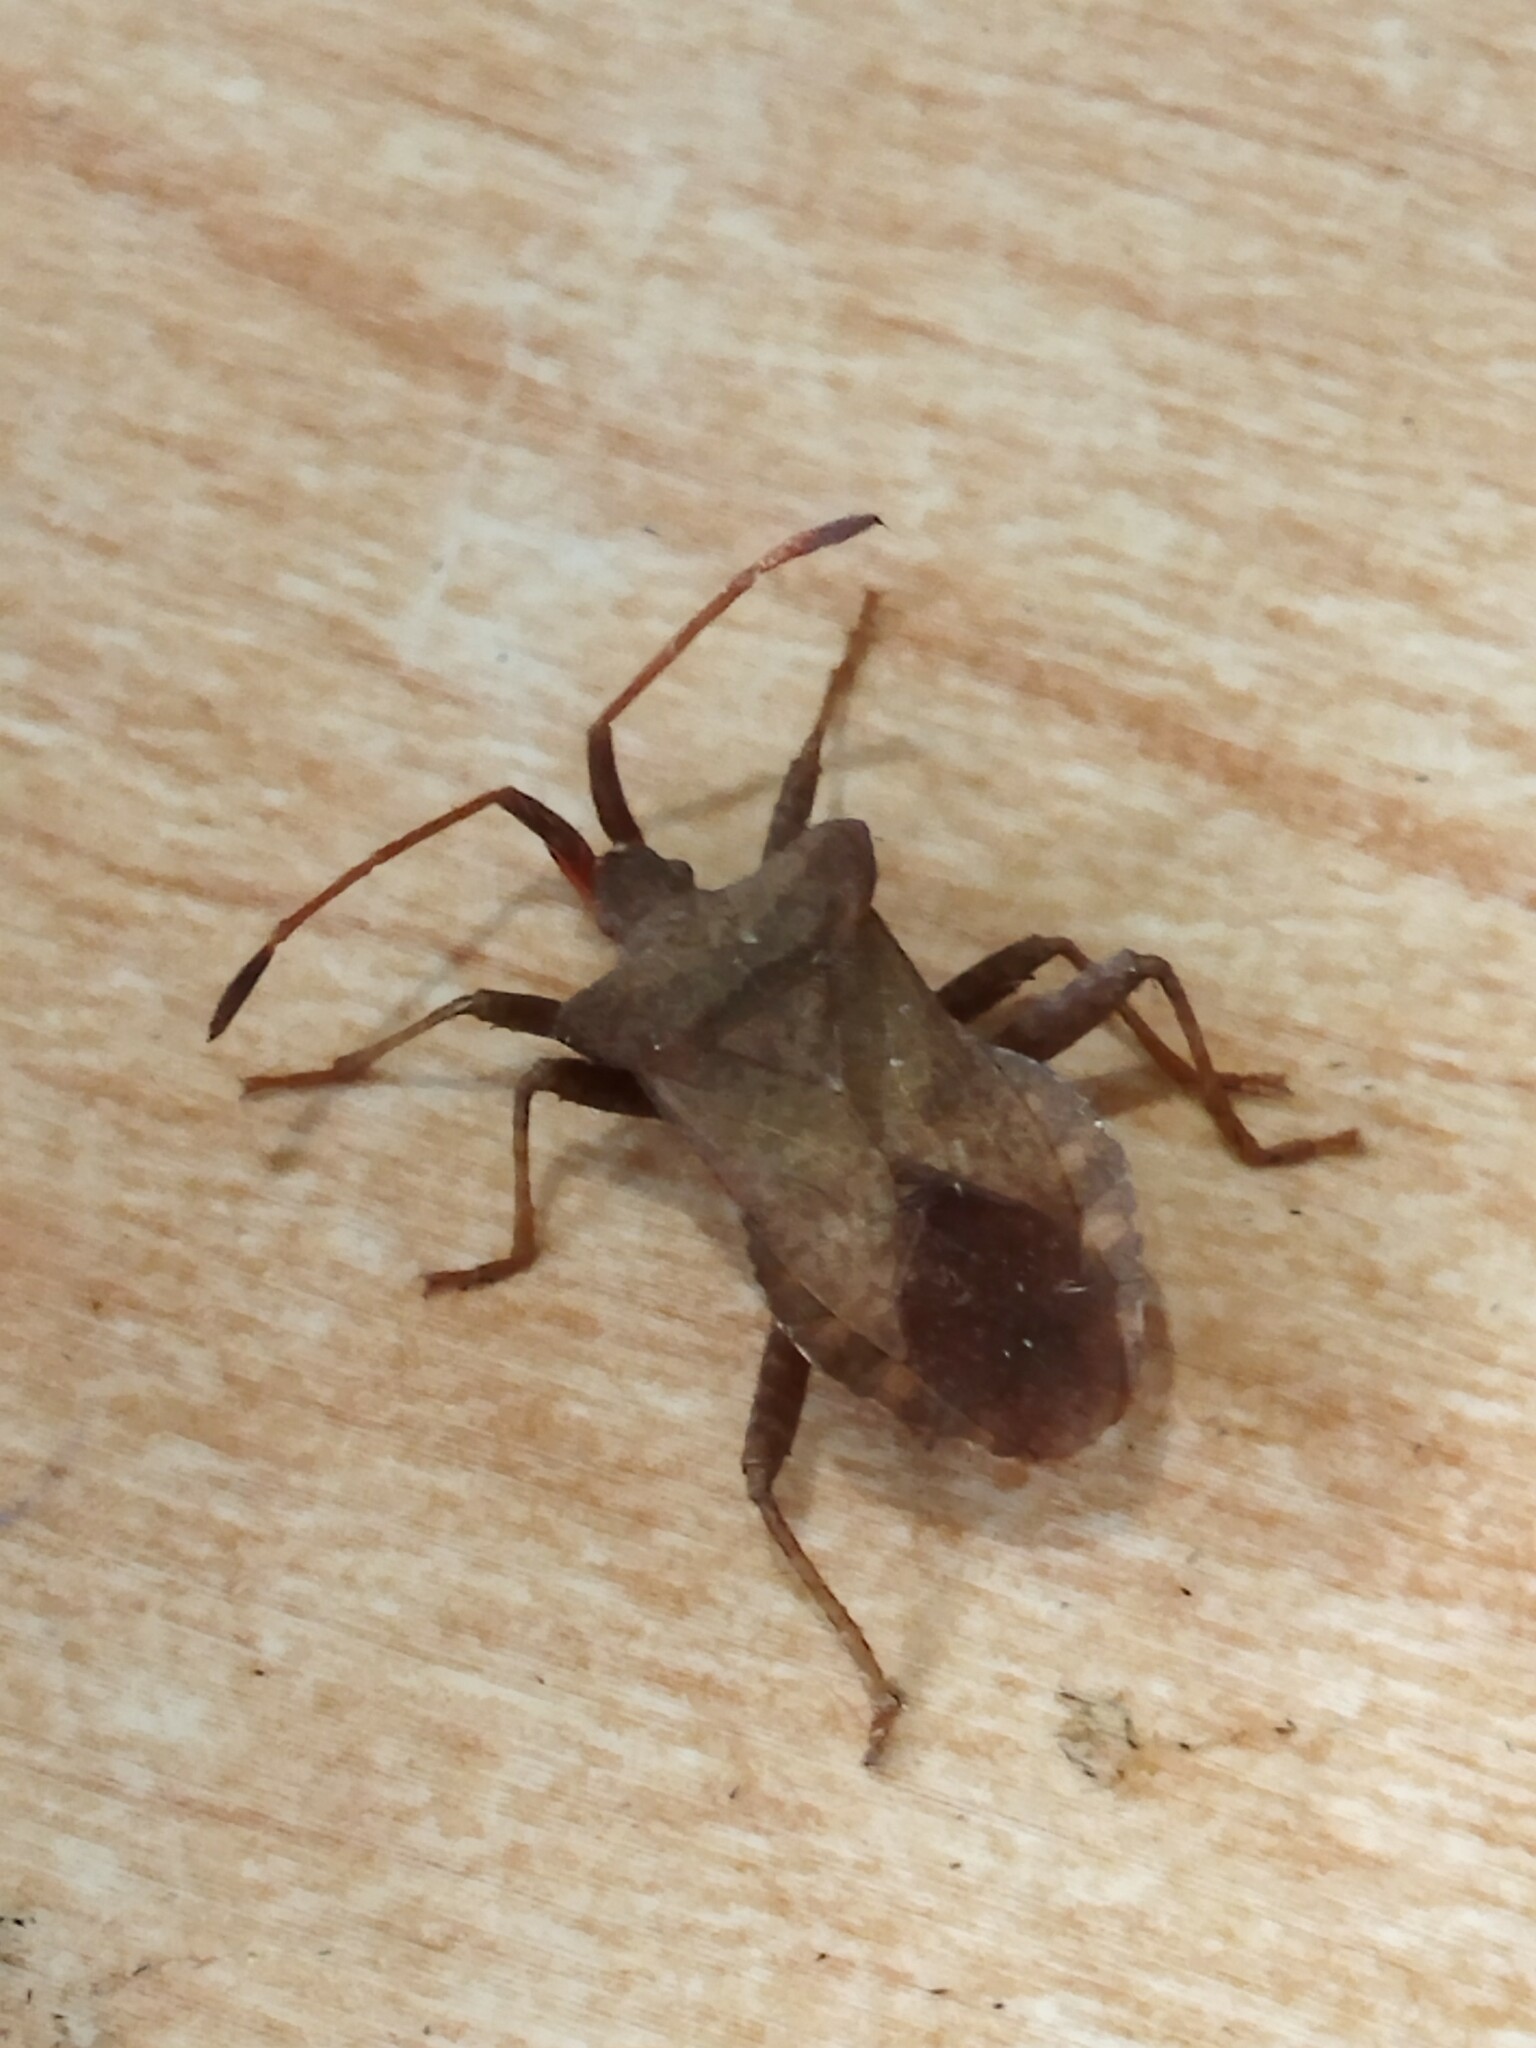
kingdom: Animalia
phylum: Arthropoda
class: Insecta
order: Hemiptera
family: Coreidae
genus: Coreus
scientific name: Coreus marginatus
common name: Dock bug
